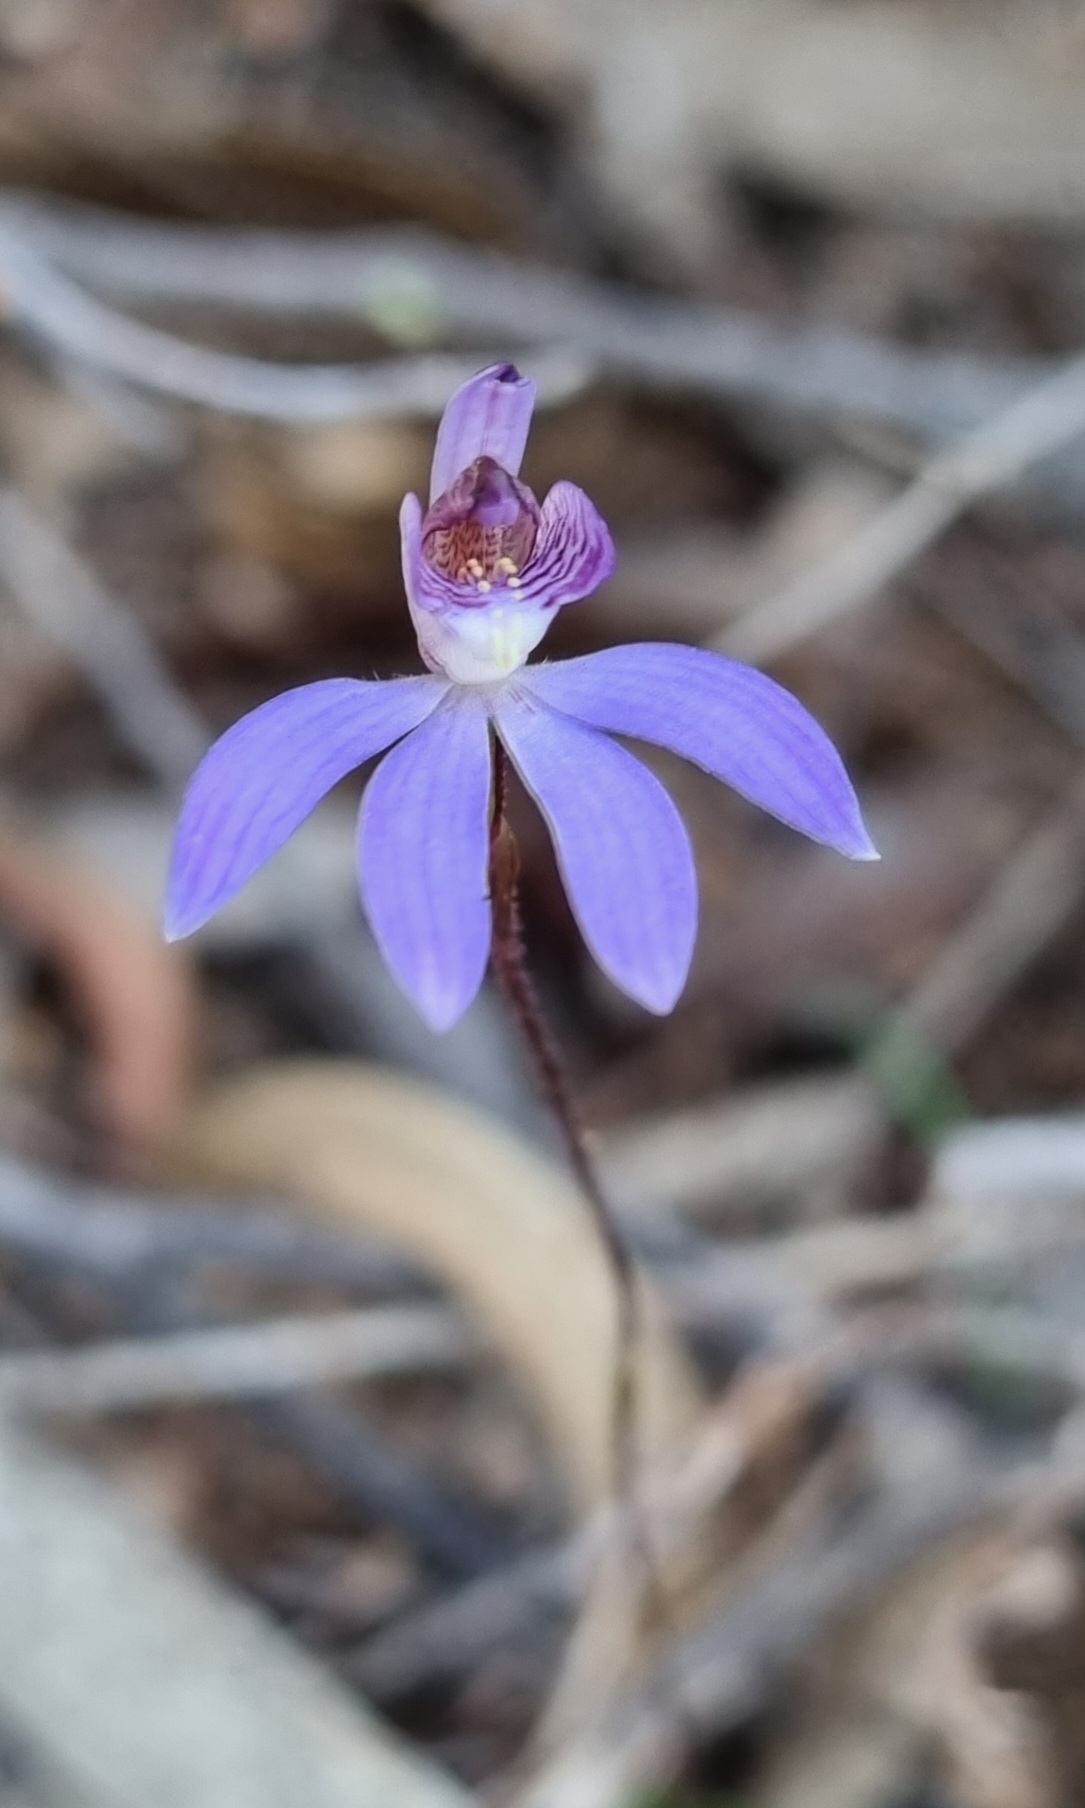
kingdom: Plantae
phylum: Tracheophyta
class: Liliopsida
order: Asparagales
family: Orchidaceae
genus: Caladenia
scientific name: Caladenia caerulea
